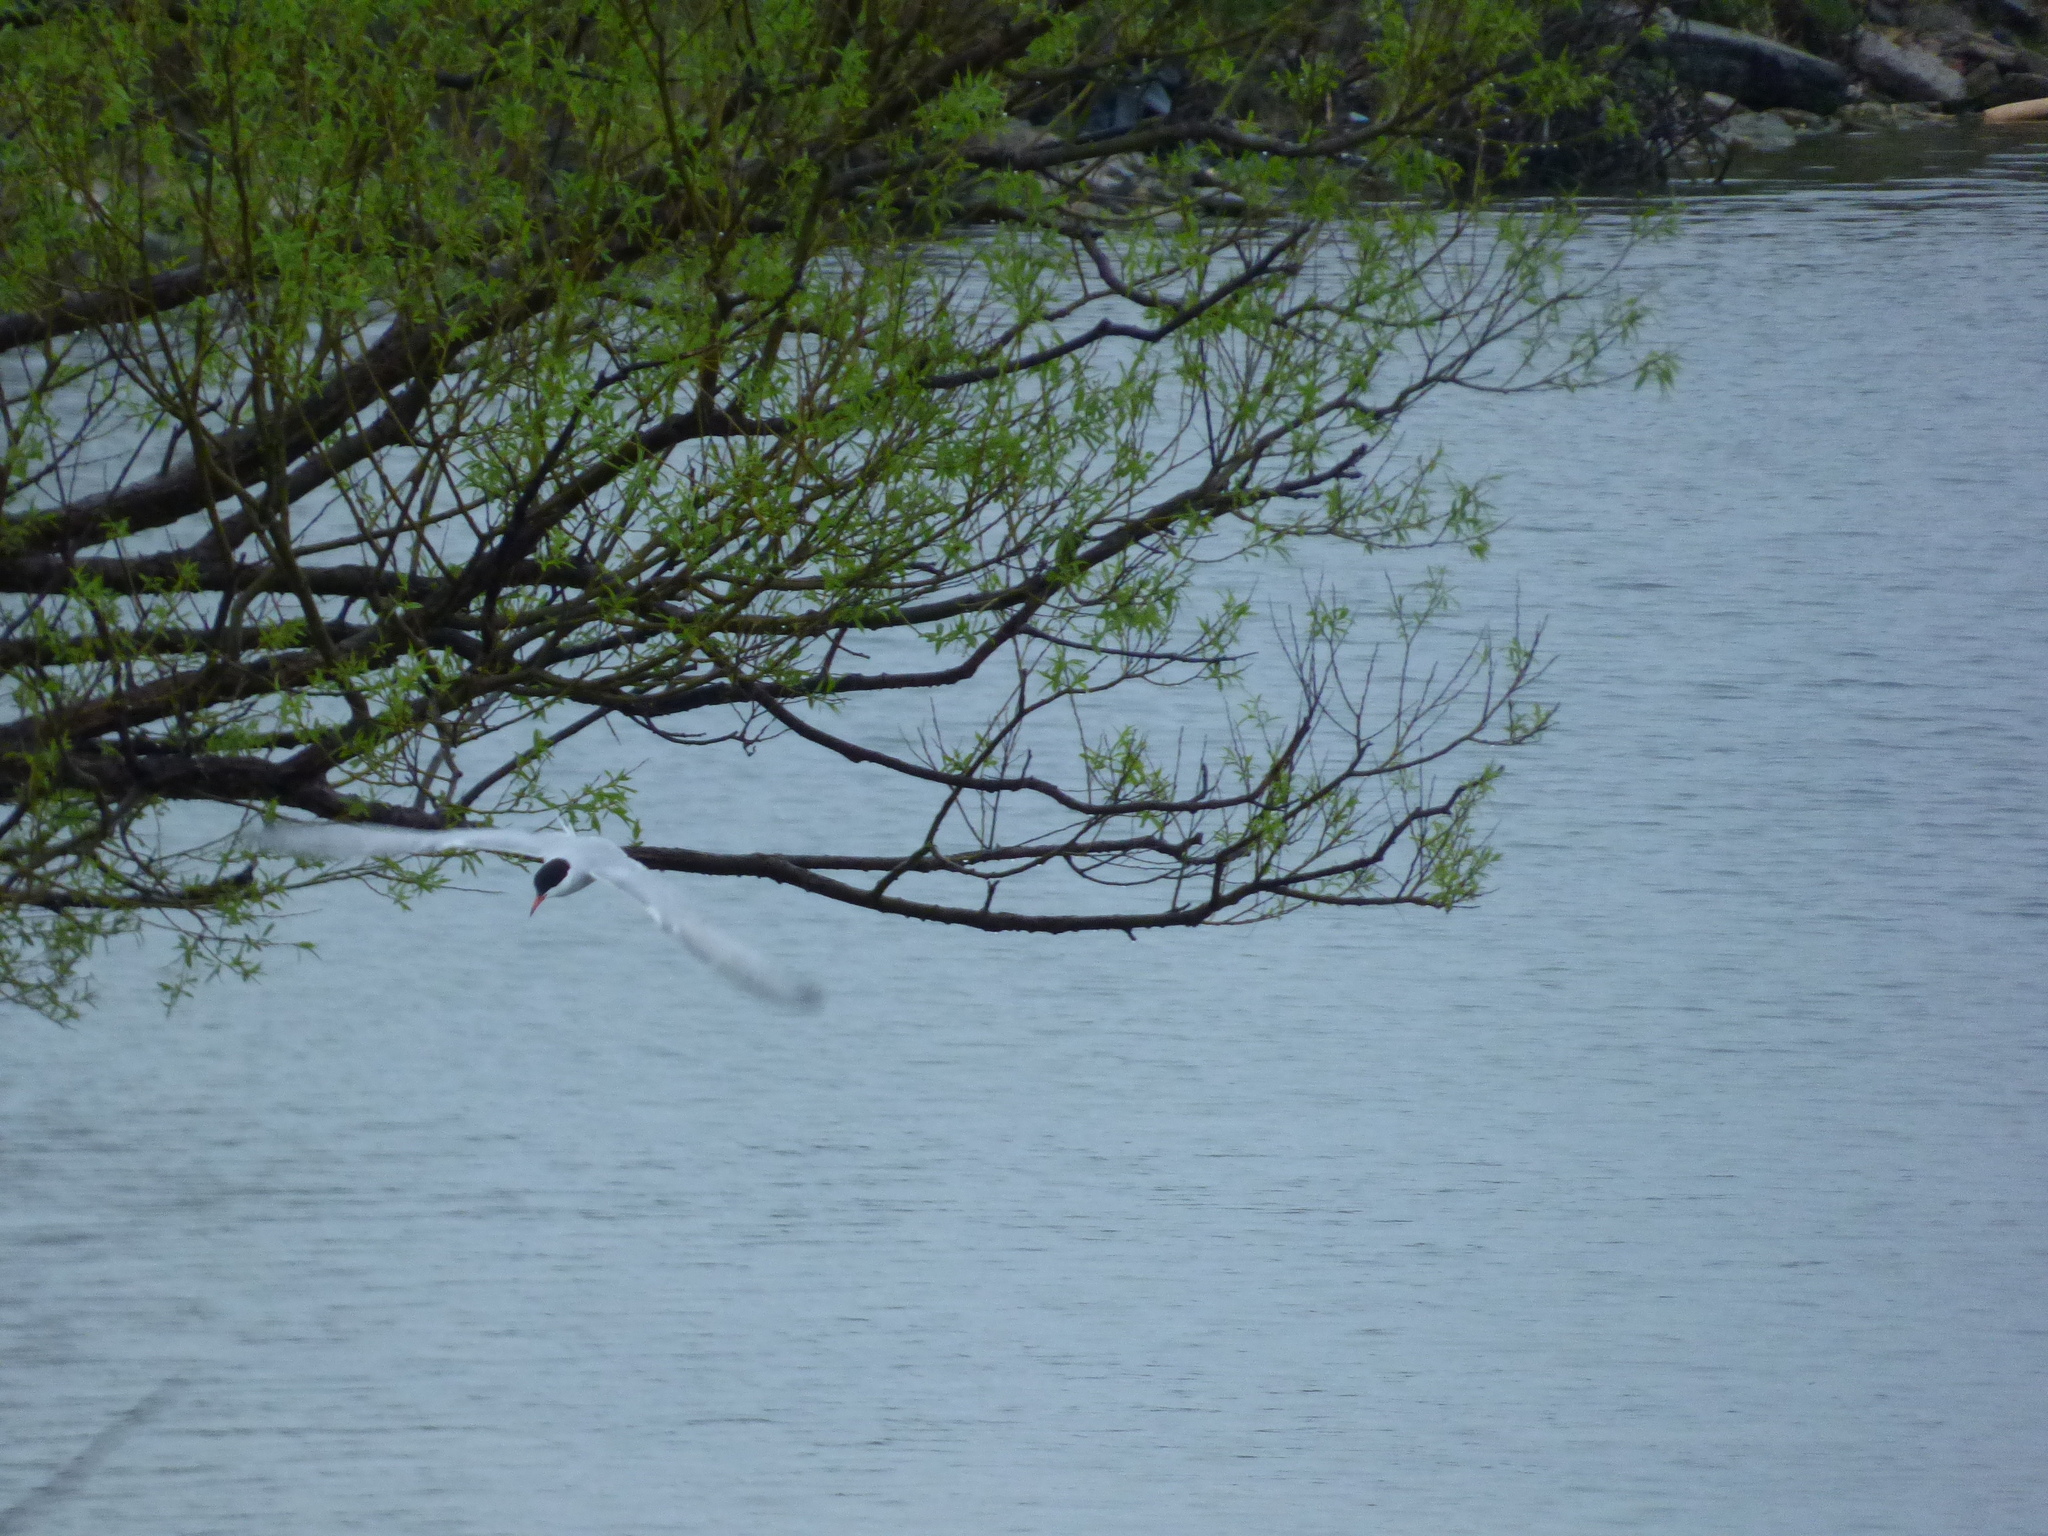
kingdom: Animalia
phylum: Chordata
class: Aves
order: Charadriiformes
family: Laridae
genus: Sterna
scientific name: Sterna hirundo
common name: Common tern
